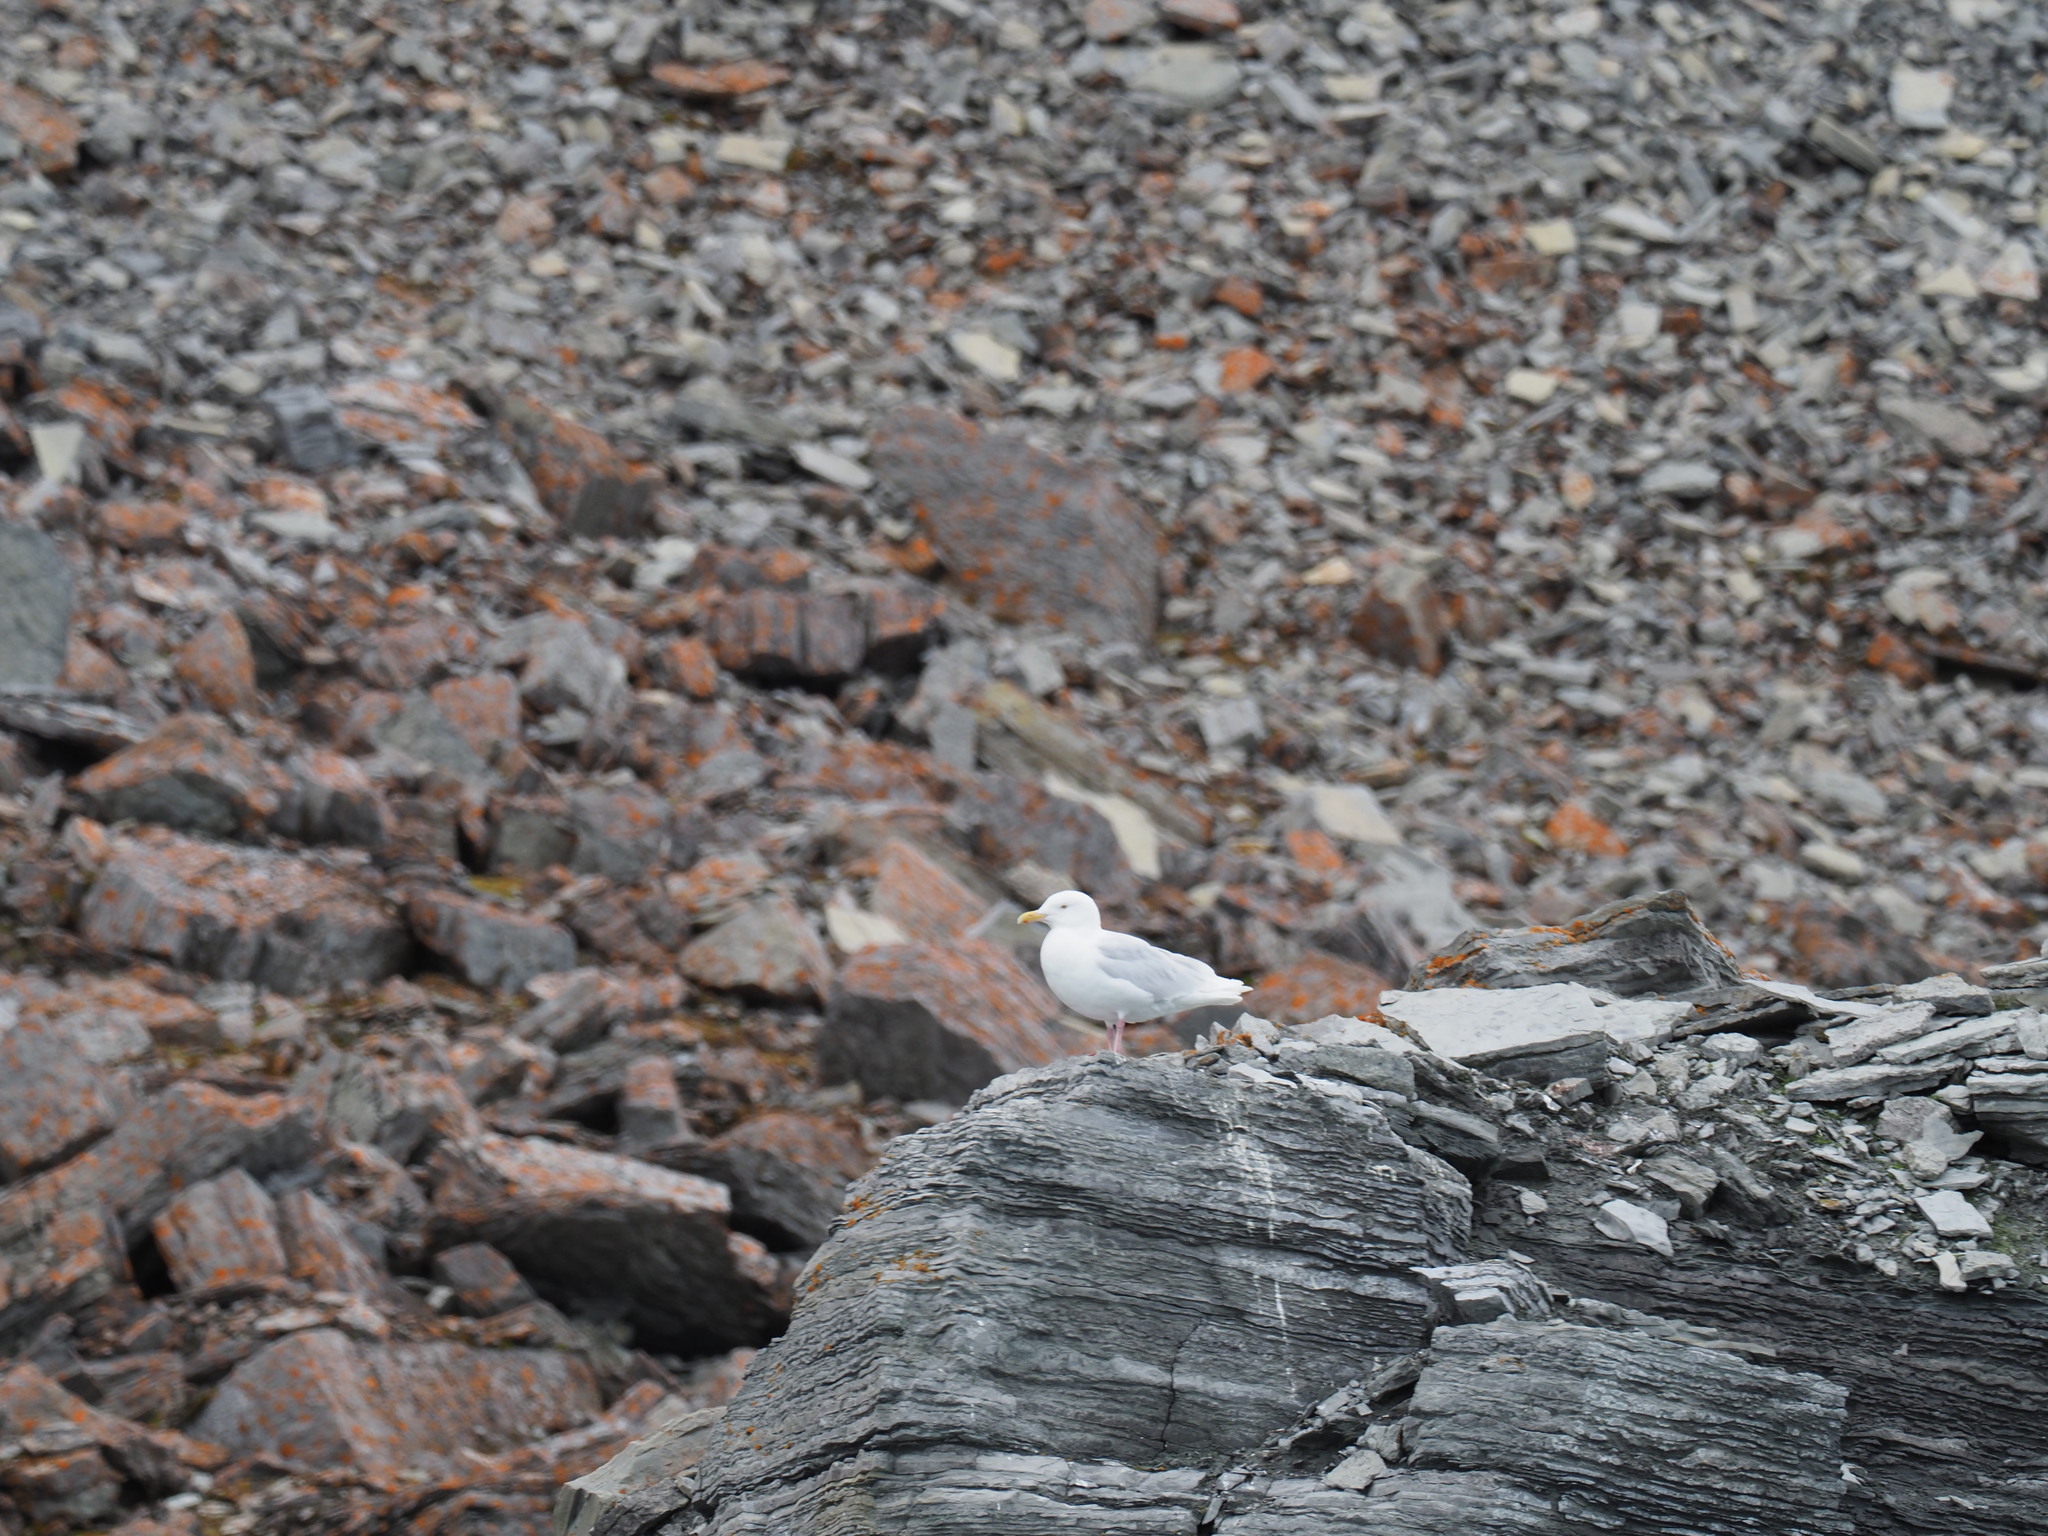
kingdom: Animalia
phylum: Chordata
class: Aves
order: Charadriiformes
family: Laridae
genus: Larus
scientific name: Larus hyperboreus
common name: Glaucous gull
